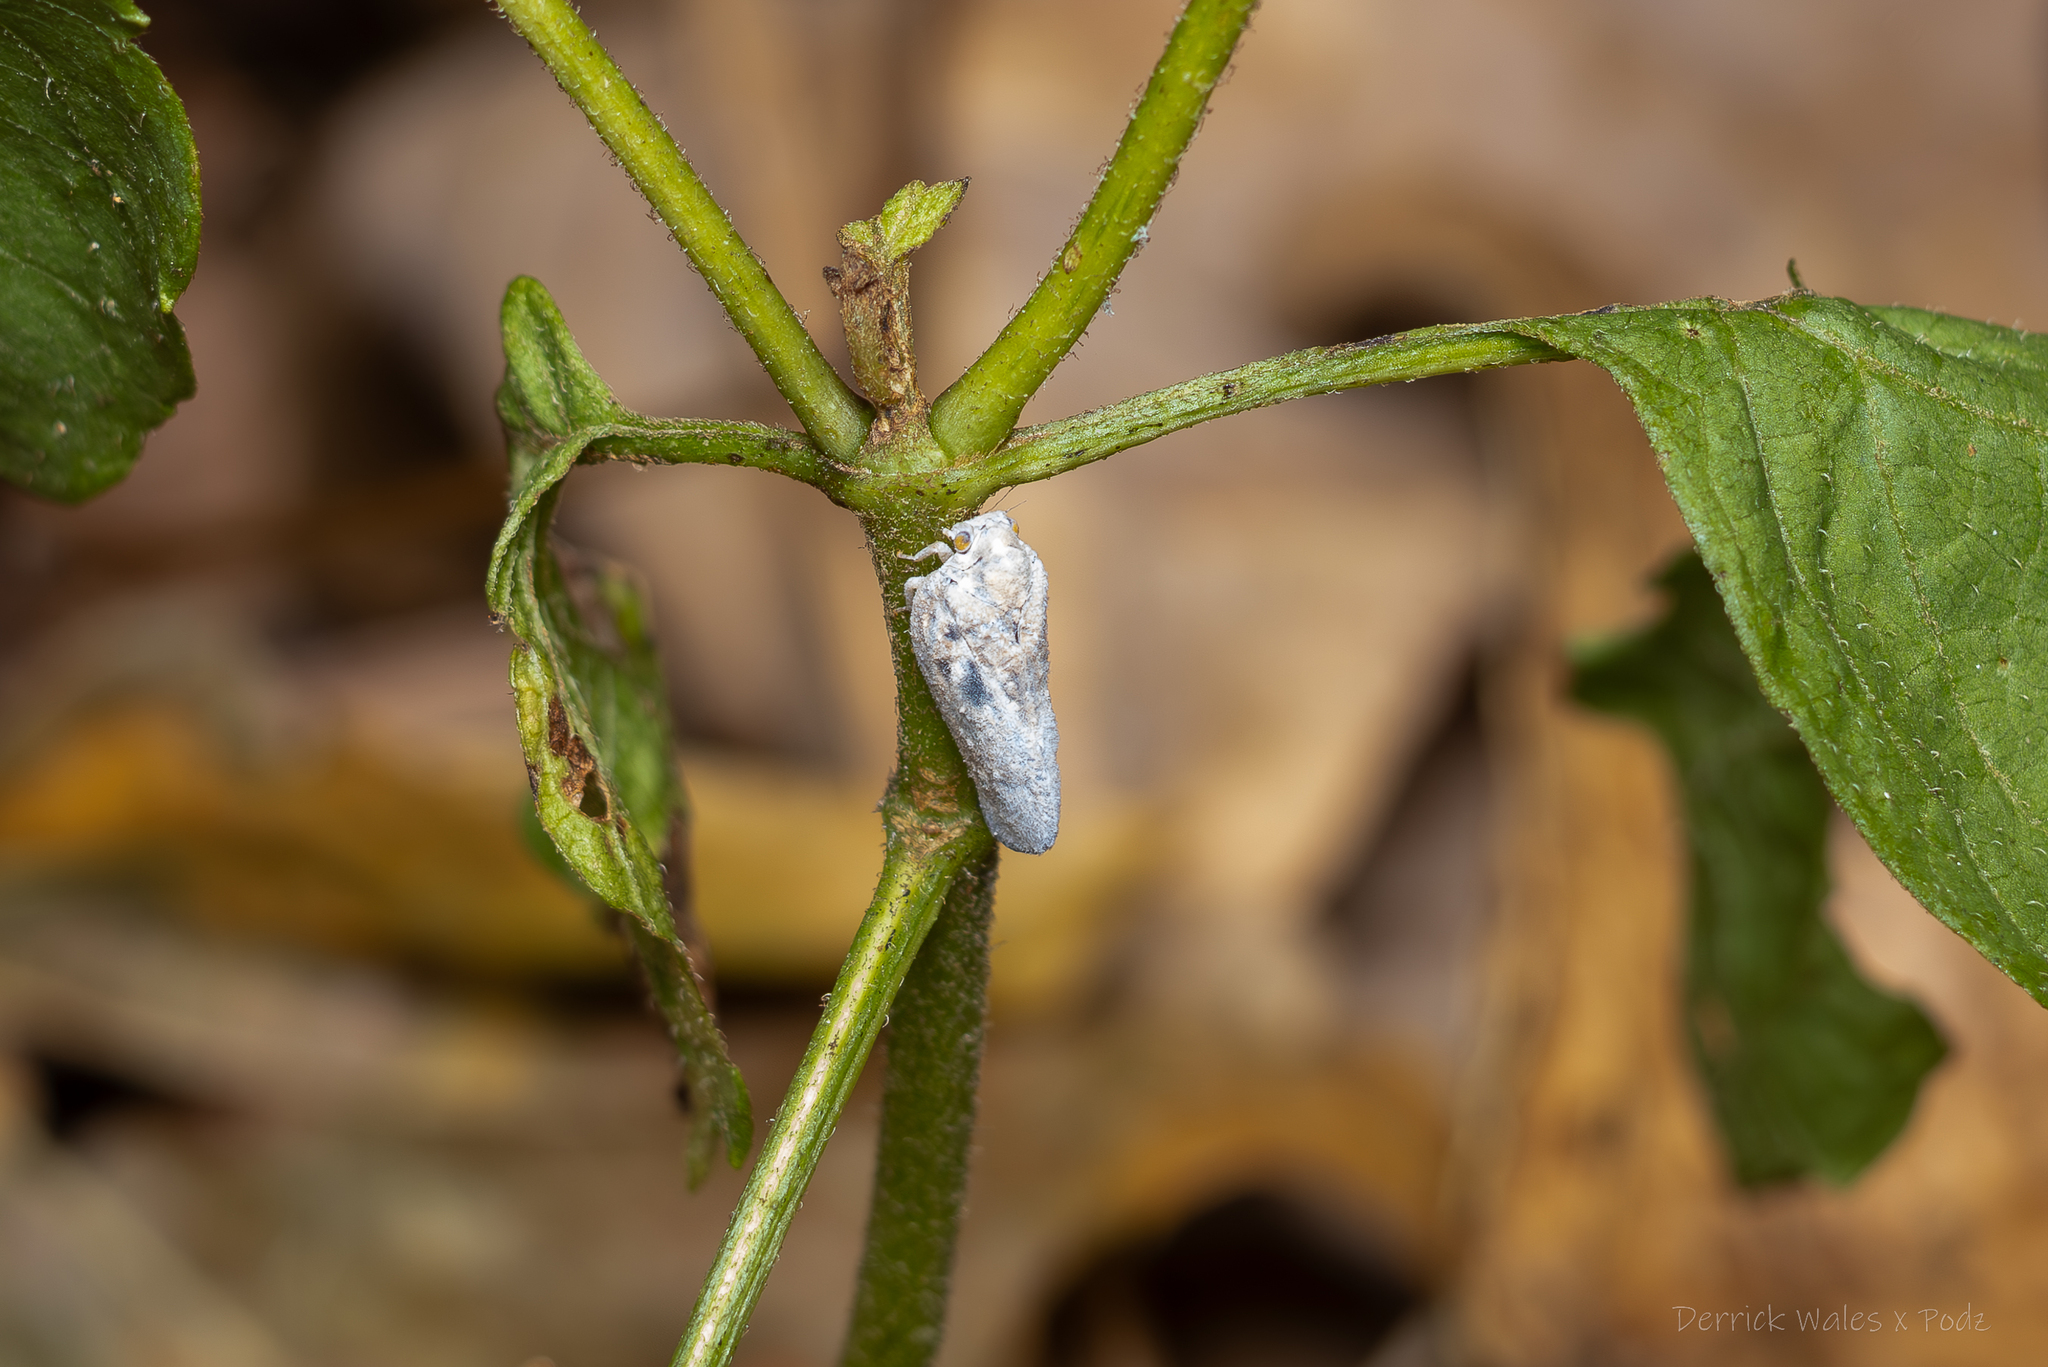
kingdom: Animalia
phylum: Arthropoda
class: Insecta
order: Hemiptera
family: Flatidae
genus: Metcalfa
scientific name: Metcalfa pruinosa
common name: Citrus flatid planthopper
